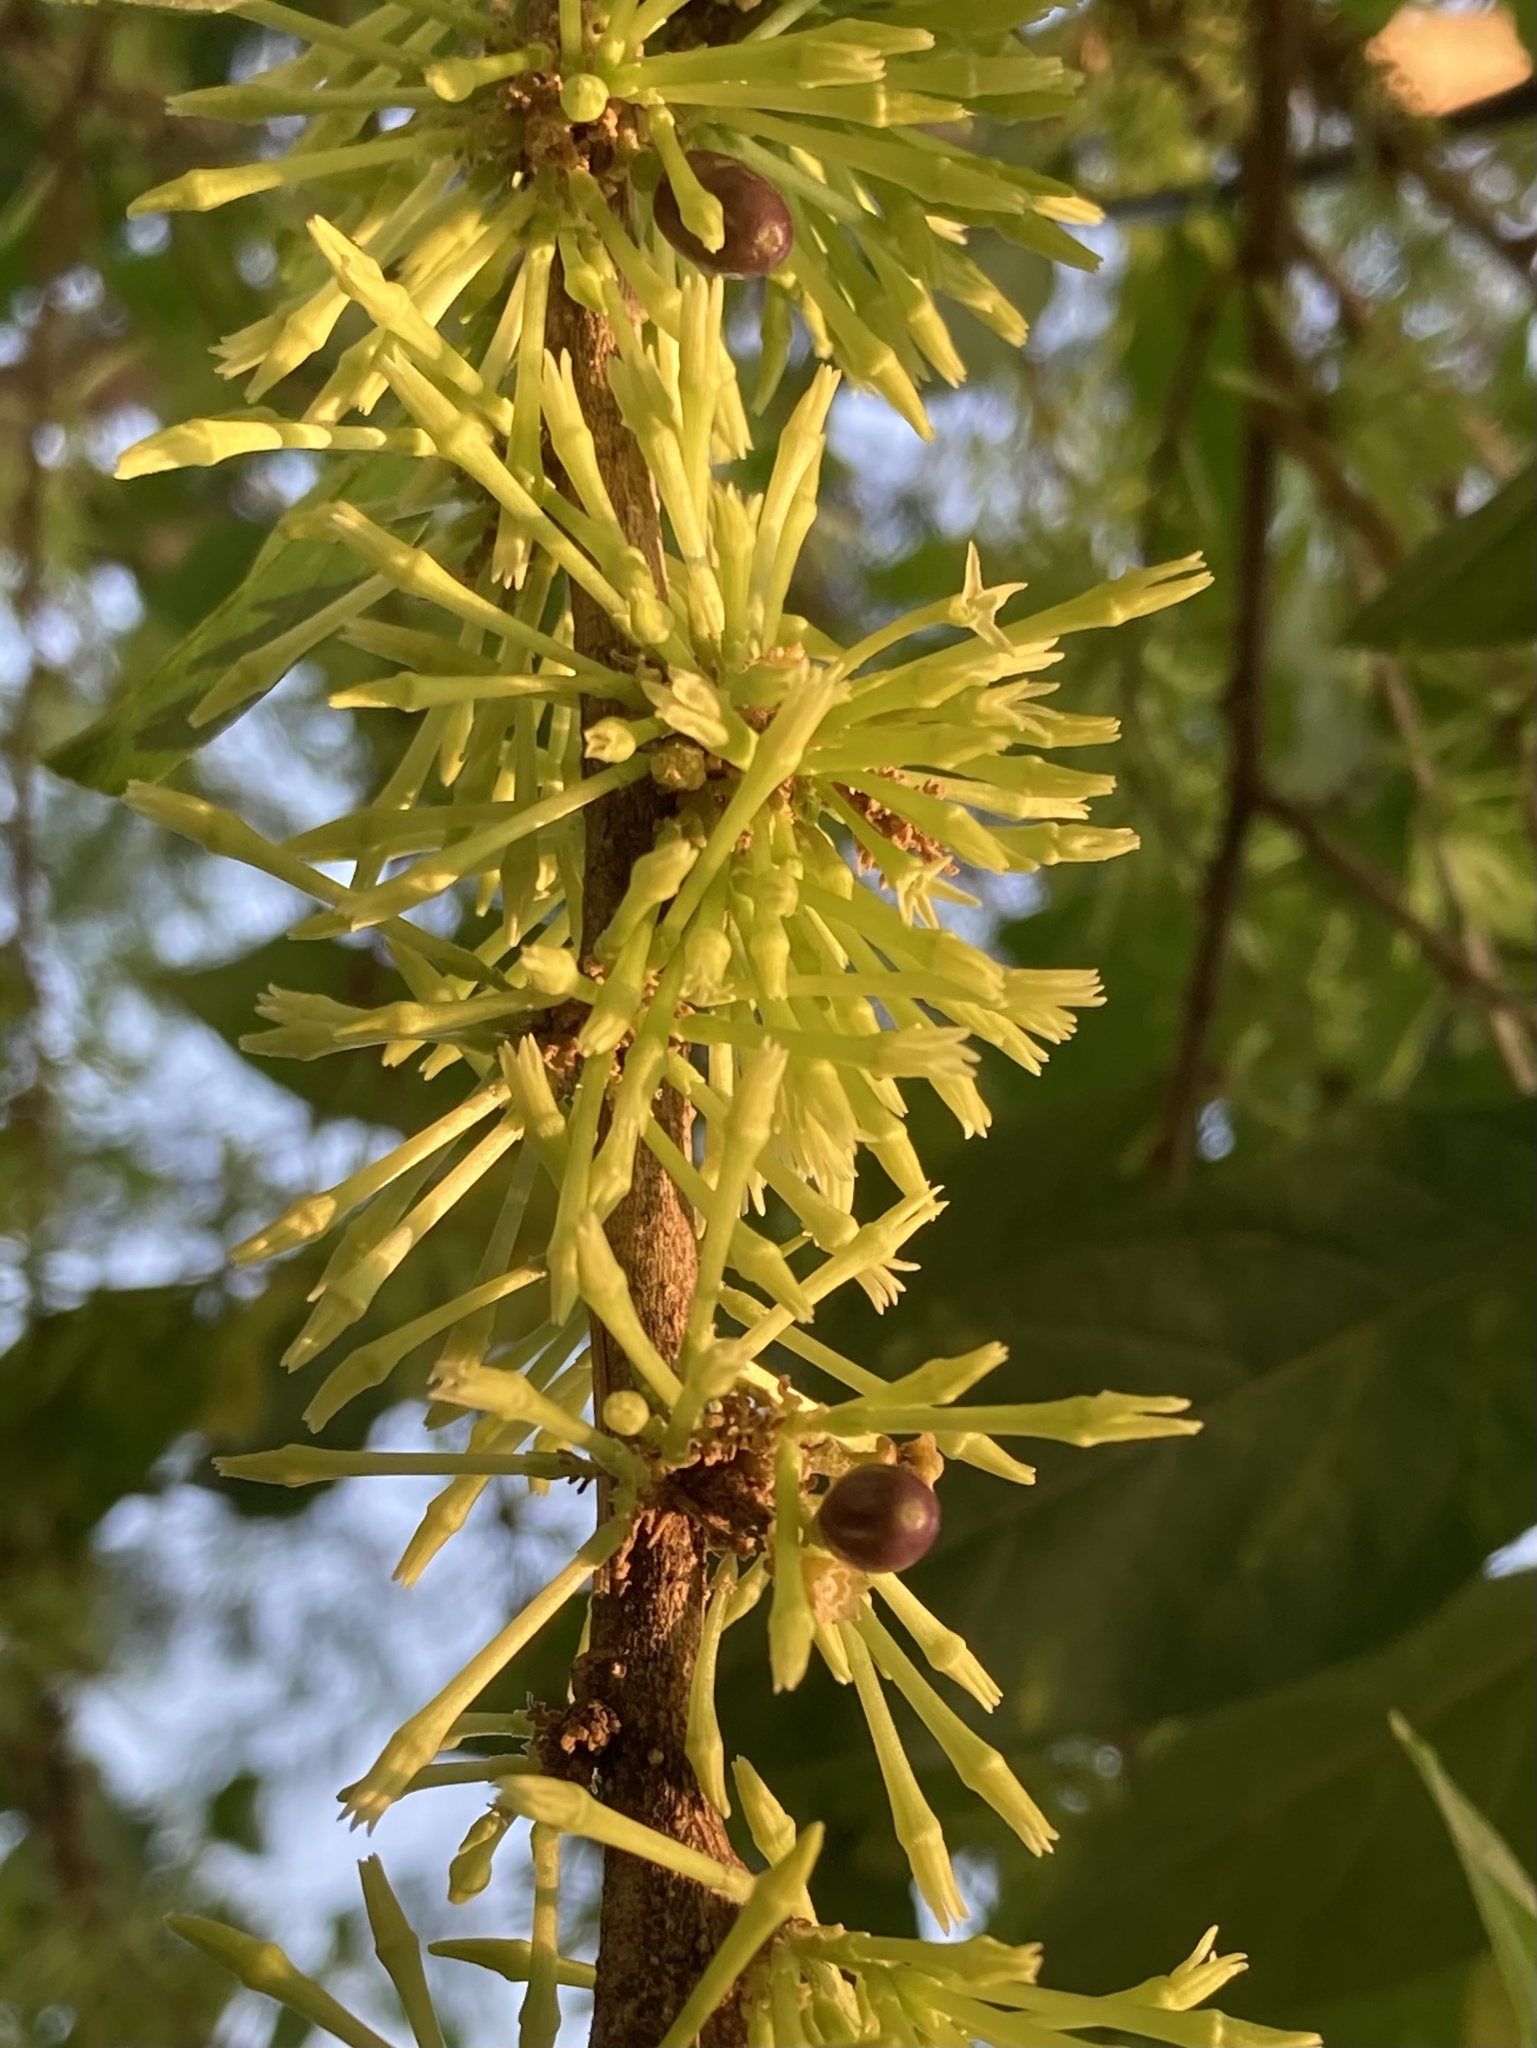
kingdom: Plantae
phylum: Tracheophyta
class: Magnoliopsida
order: Solanales
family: Solanaceae
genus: Cestrum
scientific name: Cestrum nocturnum
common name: Night jessamine
